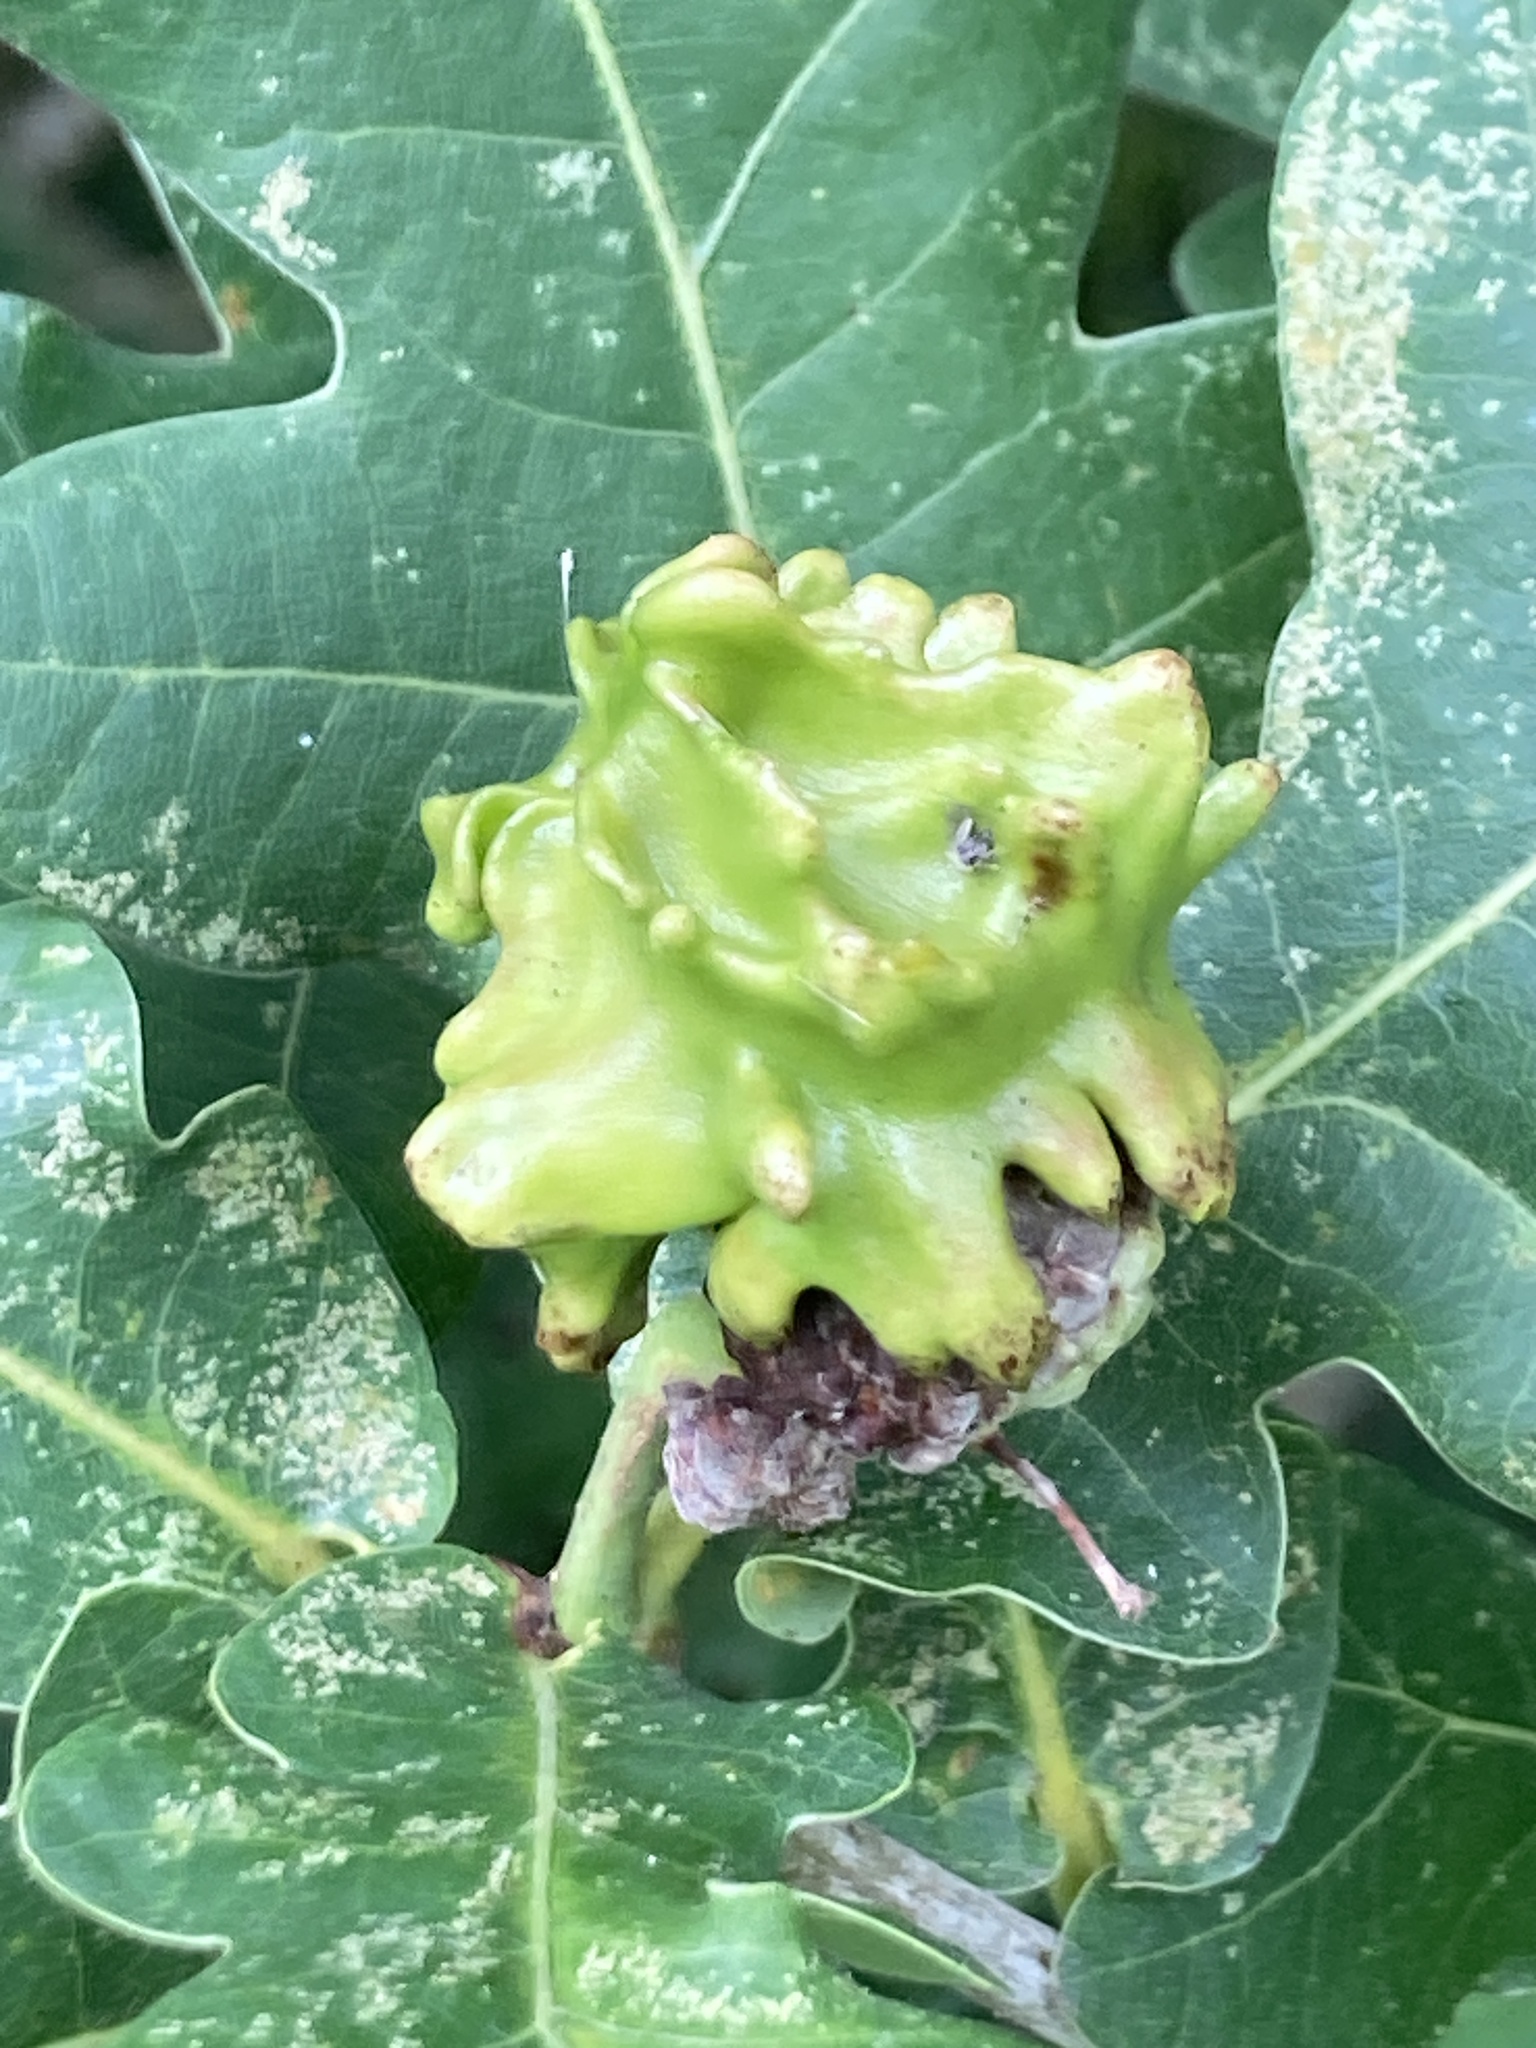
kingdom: Animalia
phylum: Arthropoda
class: Insecta
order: Hymenoptera
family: Cynipidae
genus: Andricus
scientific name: Andricus quercuscalicis
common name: Knopper gall
